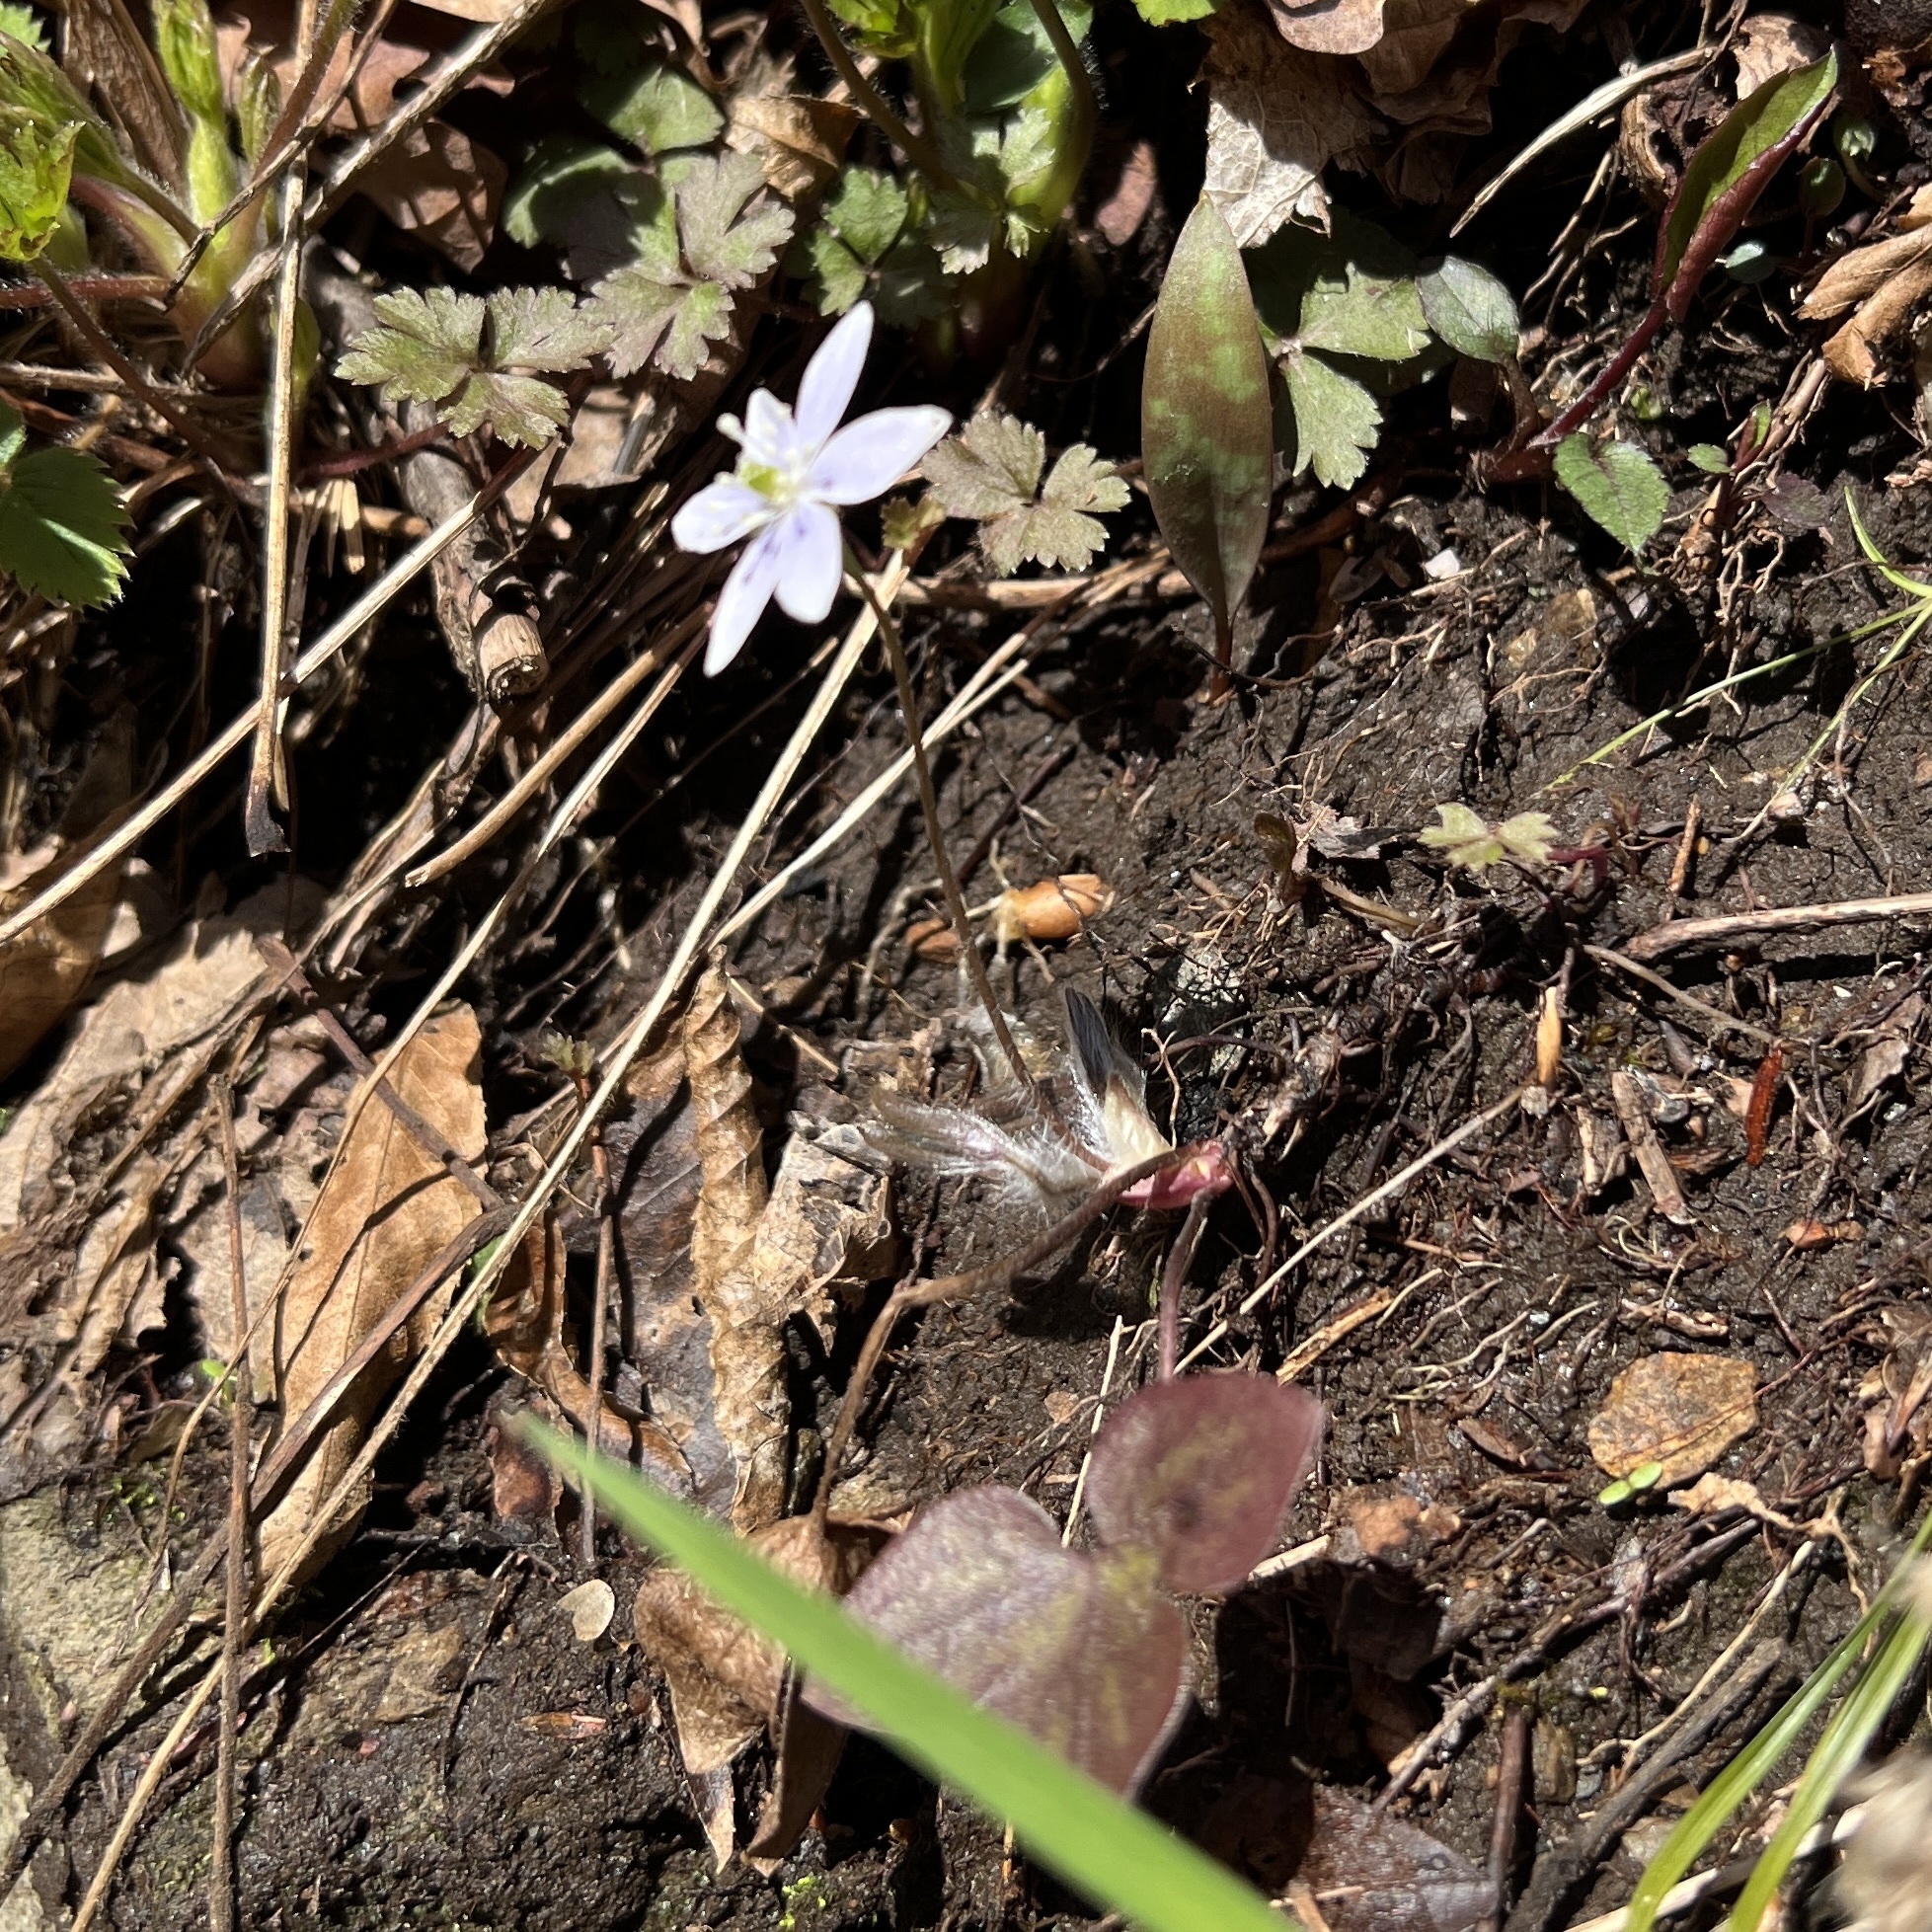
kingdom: Plantae
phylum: Tracheophyta
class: Magnoliopsida
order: Ranunculales
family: Ranunculaceae
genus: Hepatica
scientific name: Hepatica acutiloba
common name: Sharp-lobed hepatica
